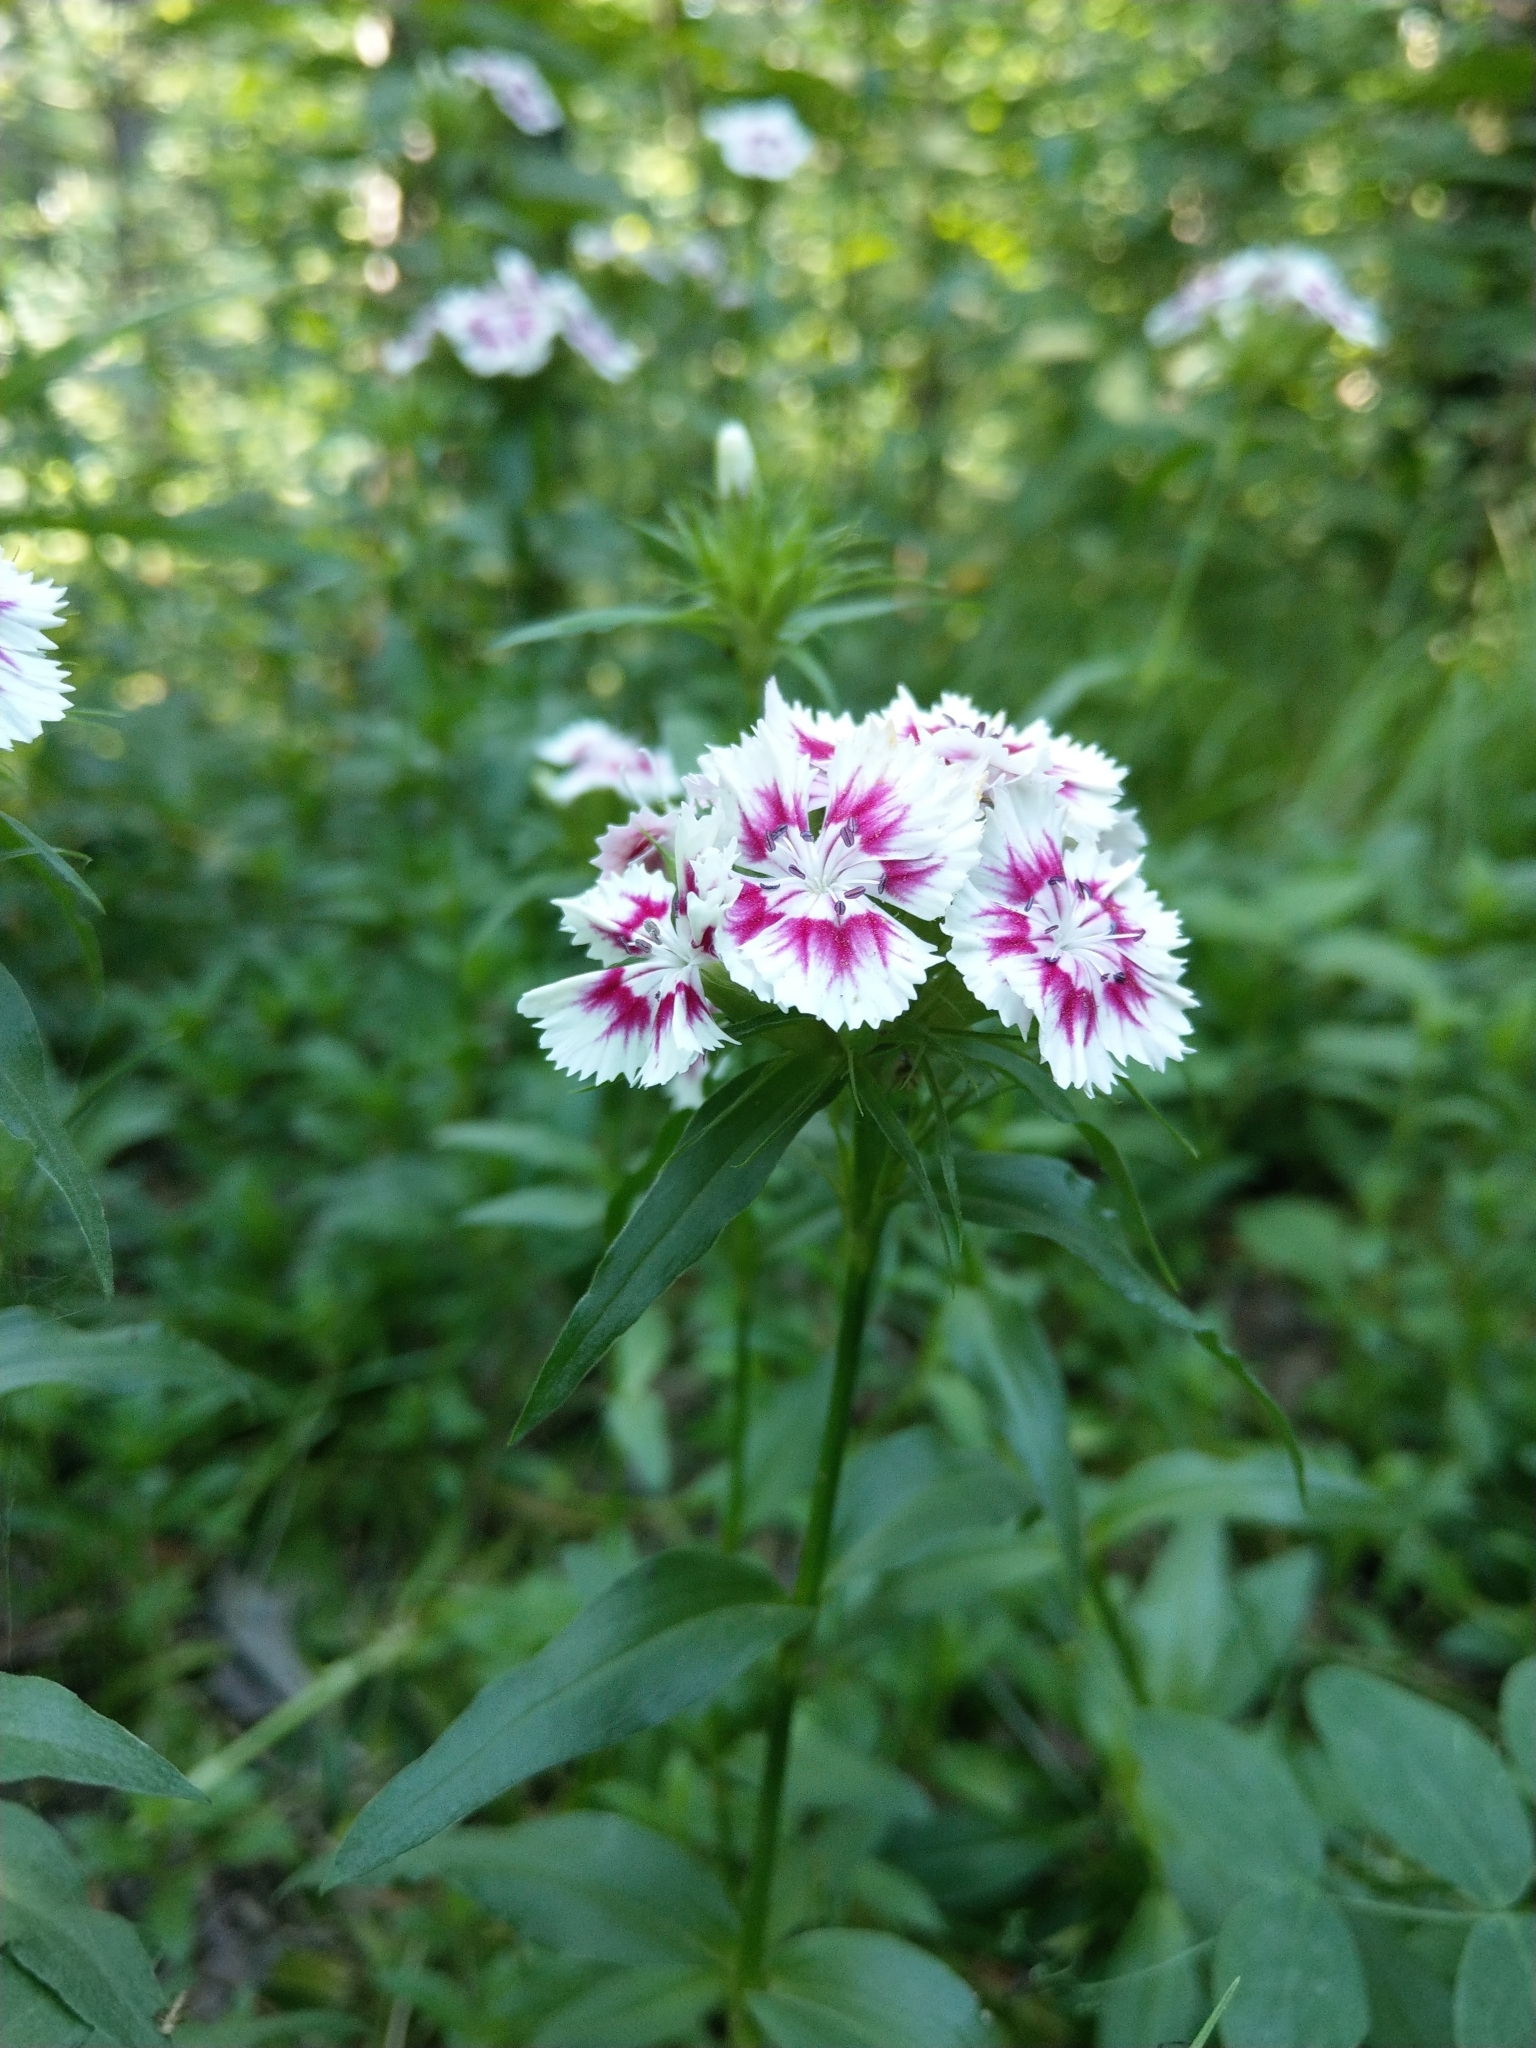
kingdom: Plantae
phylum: Tracheophyta
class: Magnoliopsida
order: Caryophyllales
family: Caryophyllaceae
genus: Dianthus
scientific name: Dianthus barbatus
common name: Sweet-william
